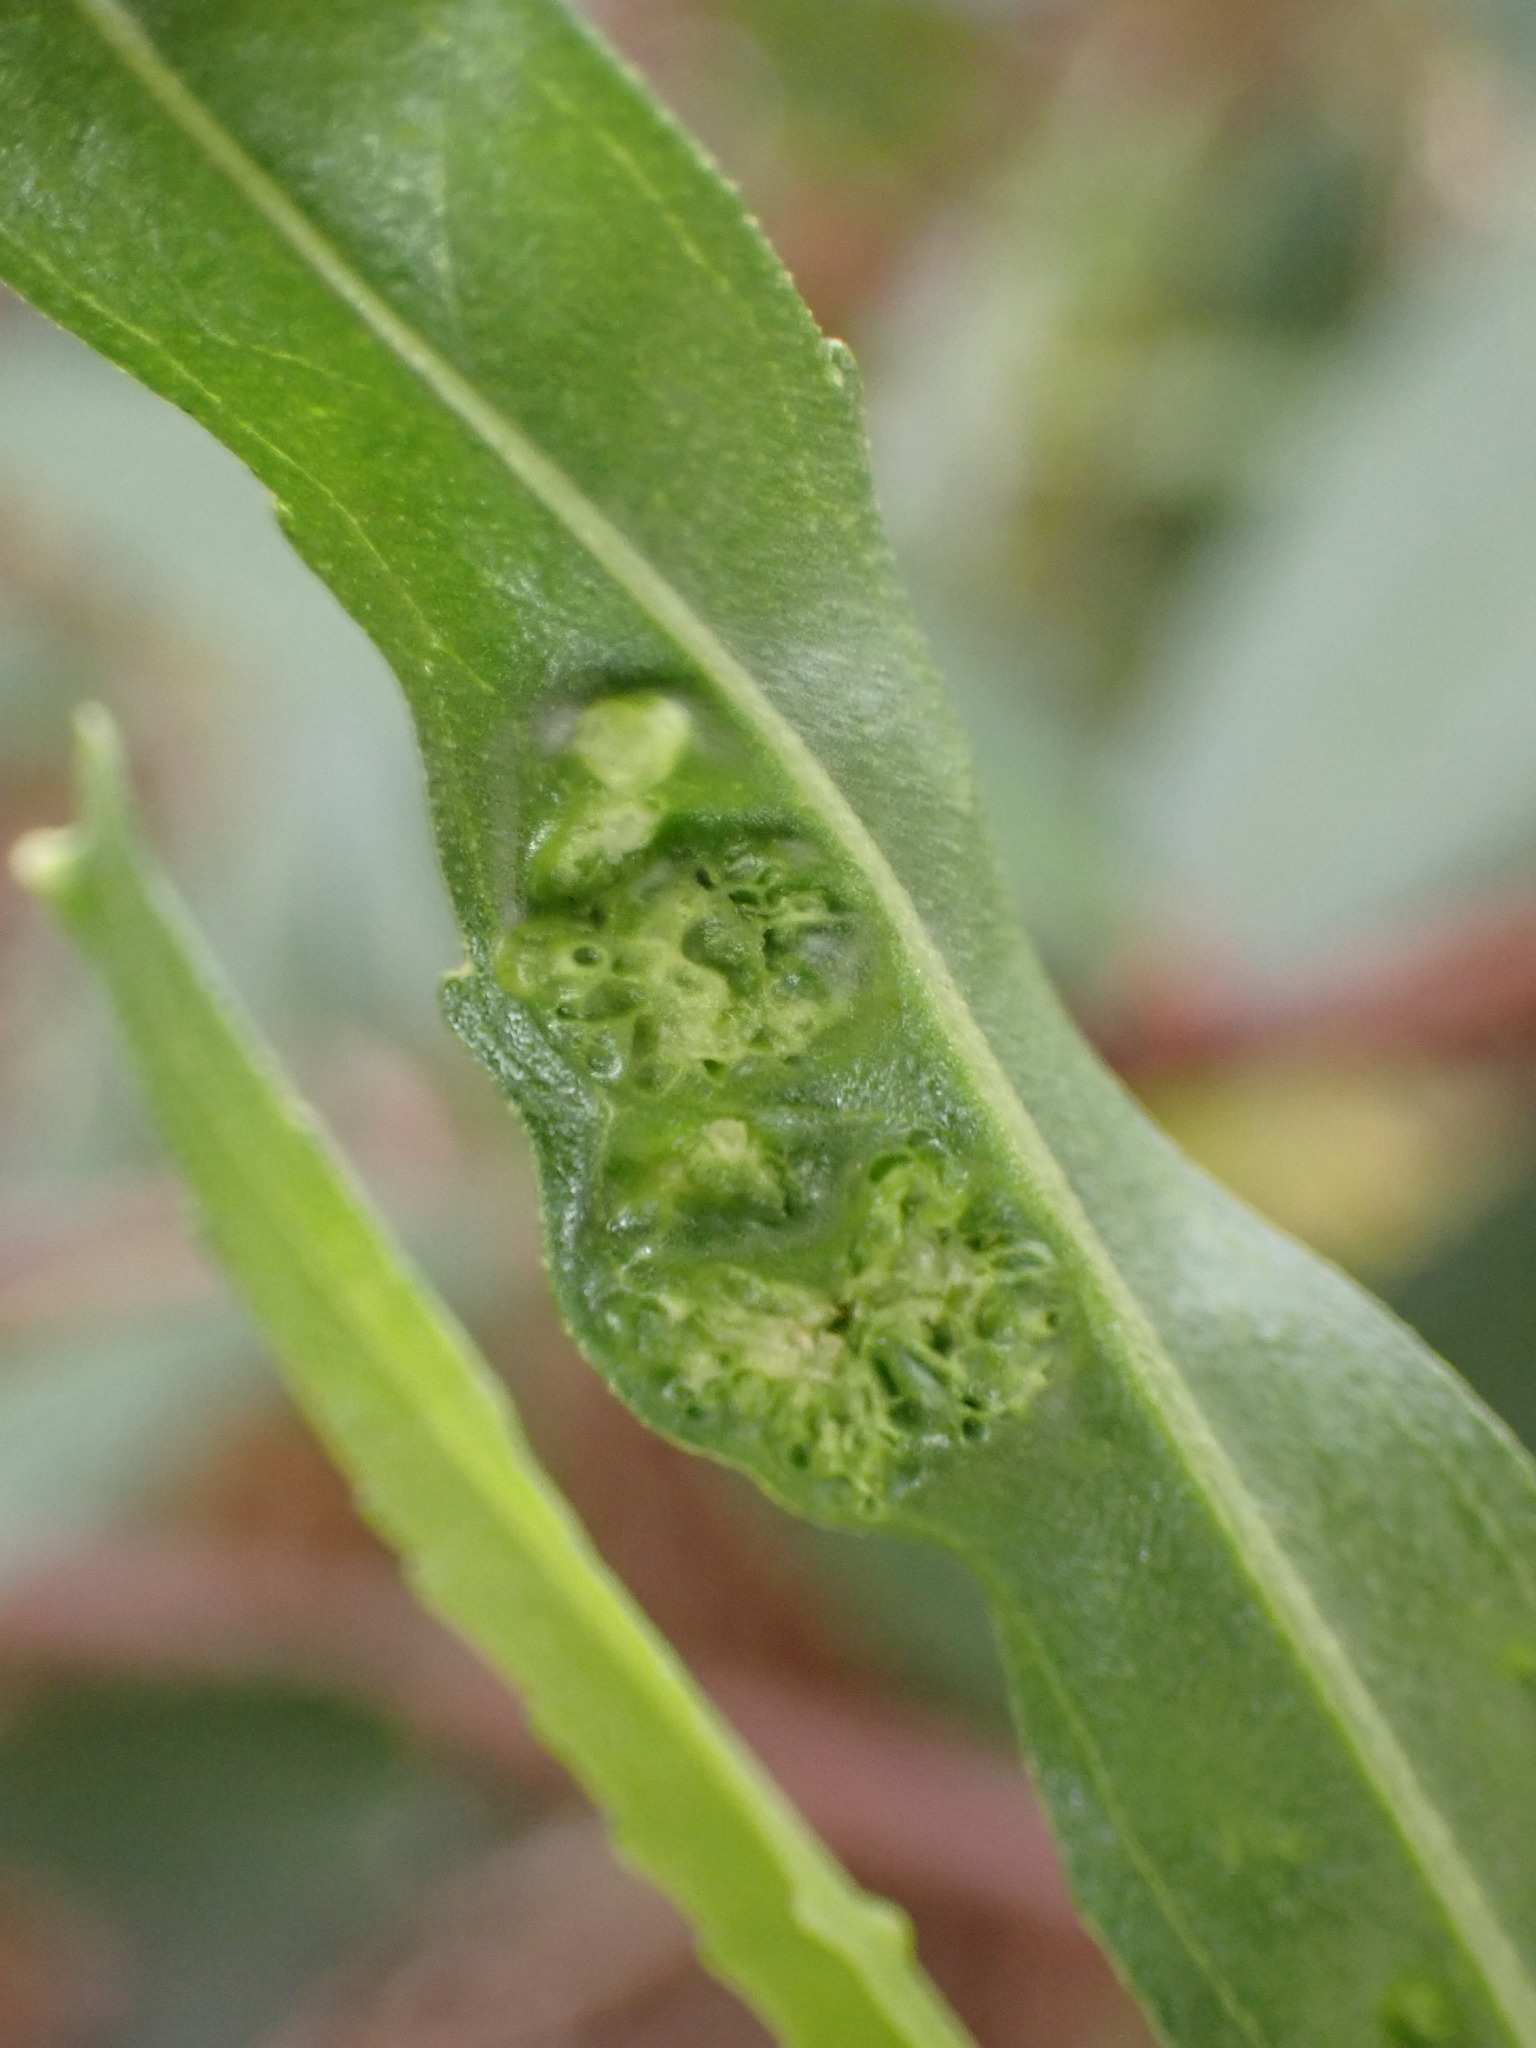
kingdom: Animalia
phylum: Arthropoda
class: Arachnida
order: Trombidiformes
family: Eriophyidae
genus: Aceria
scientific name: Aceria
